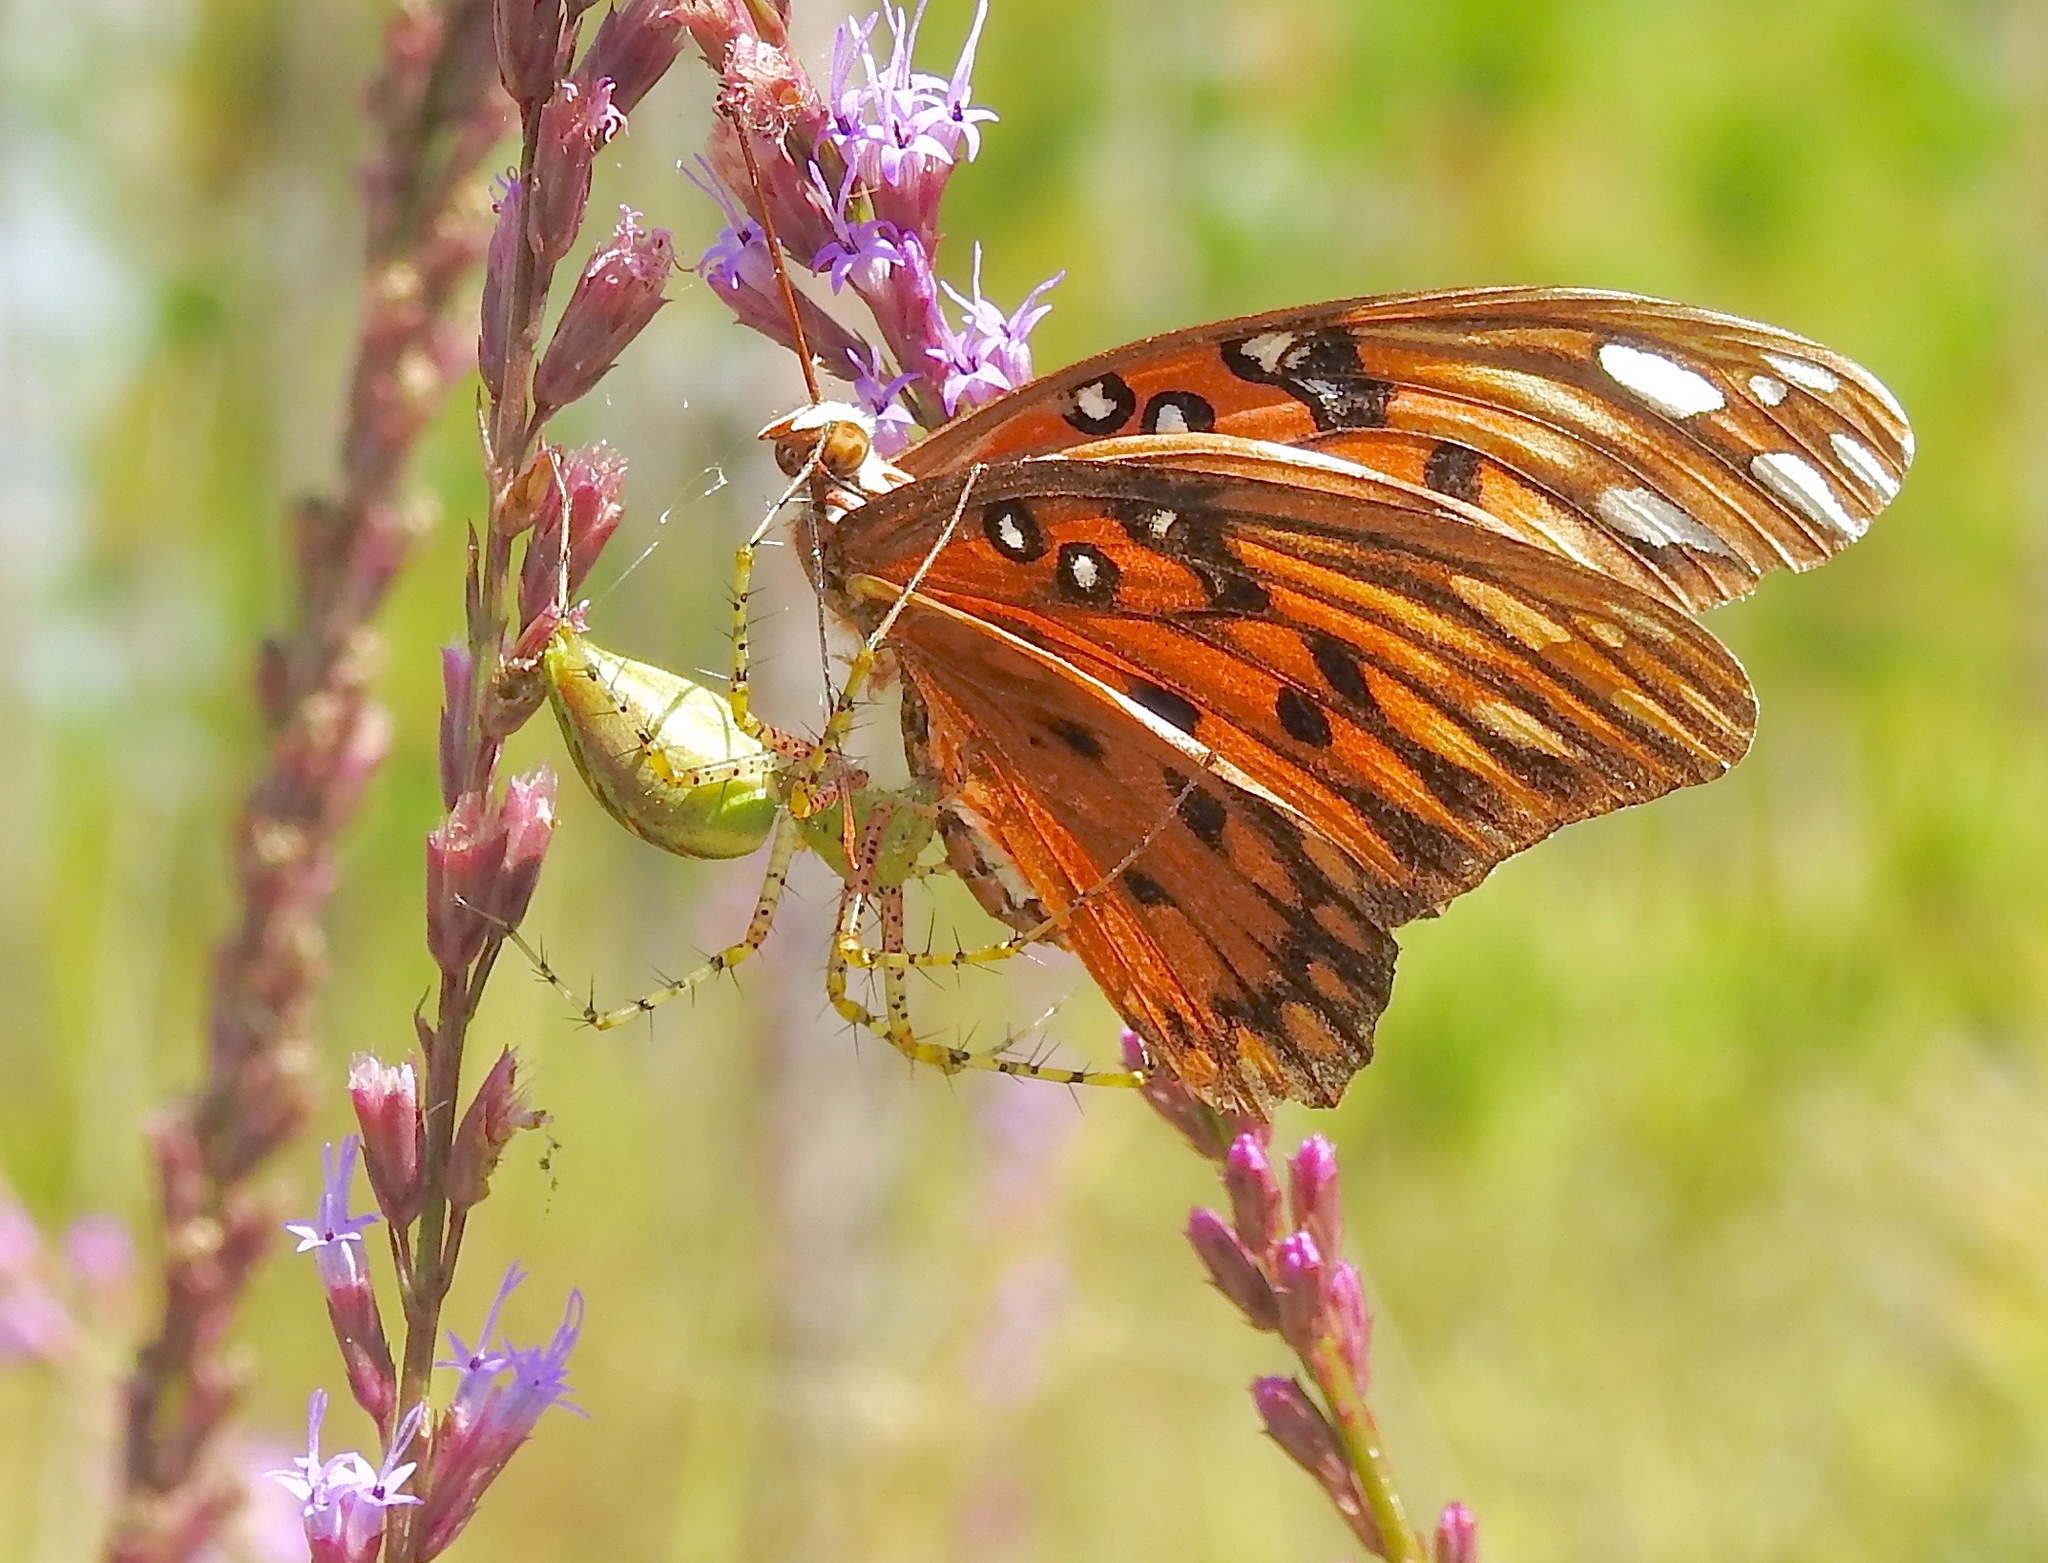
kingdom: Animalia
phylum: Arthropoda
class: Insecta
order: Lepidoptera
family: Nymphalidae
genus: Dione
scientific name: Dione vanillae
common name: Gulf fritillary
